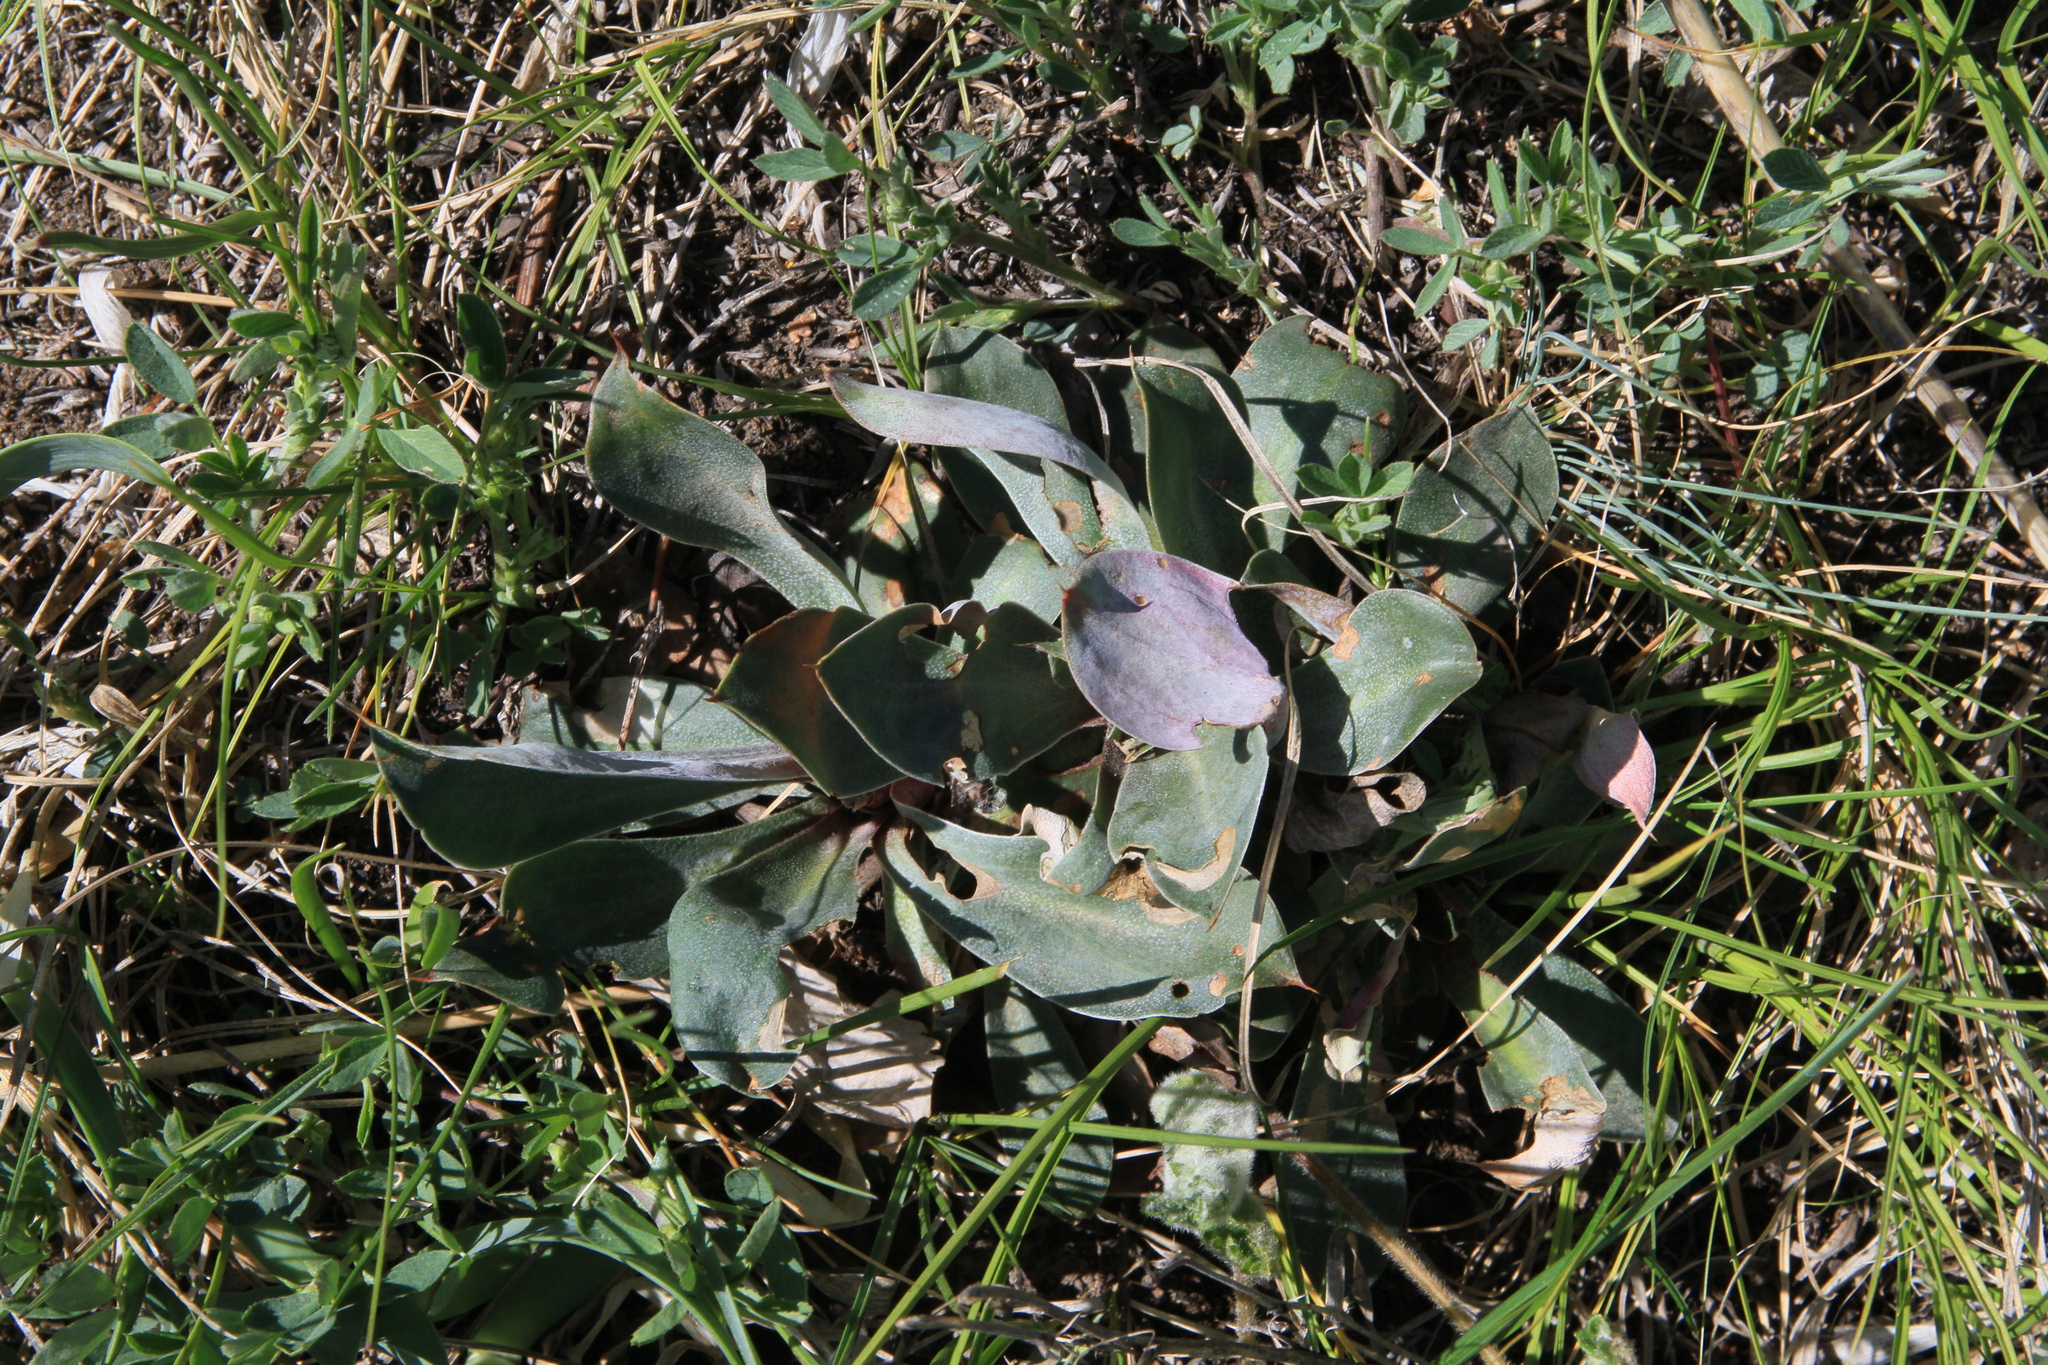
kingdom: Plantae
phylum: Tracheophyta
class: Magnoliopsida
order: Caryophyllales
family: Plumbaginaceae
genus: Goniolimon
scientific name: Goniolimon speciosum
